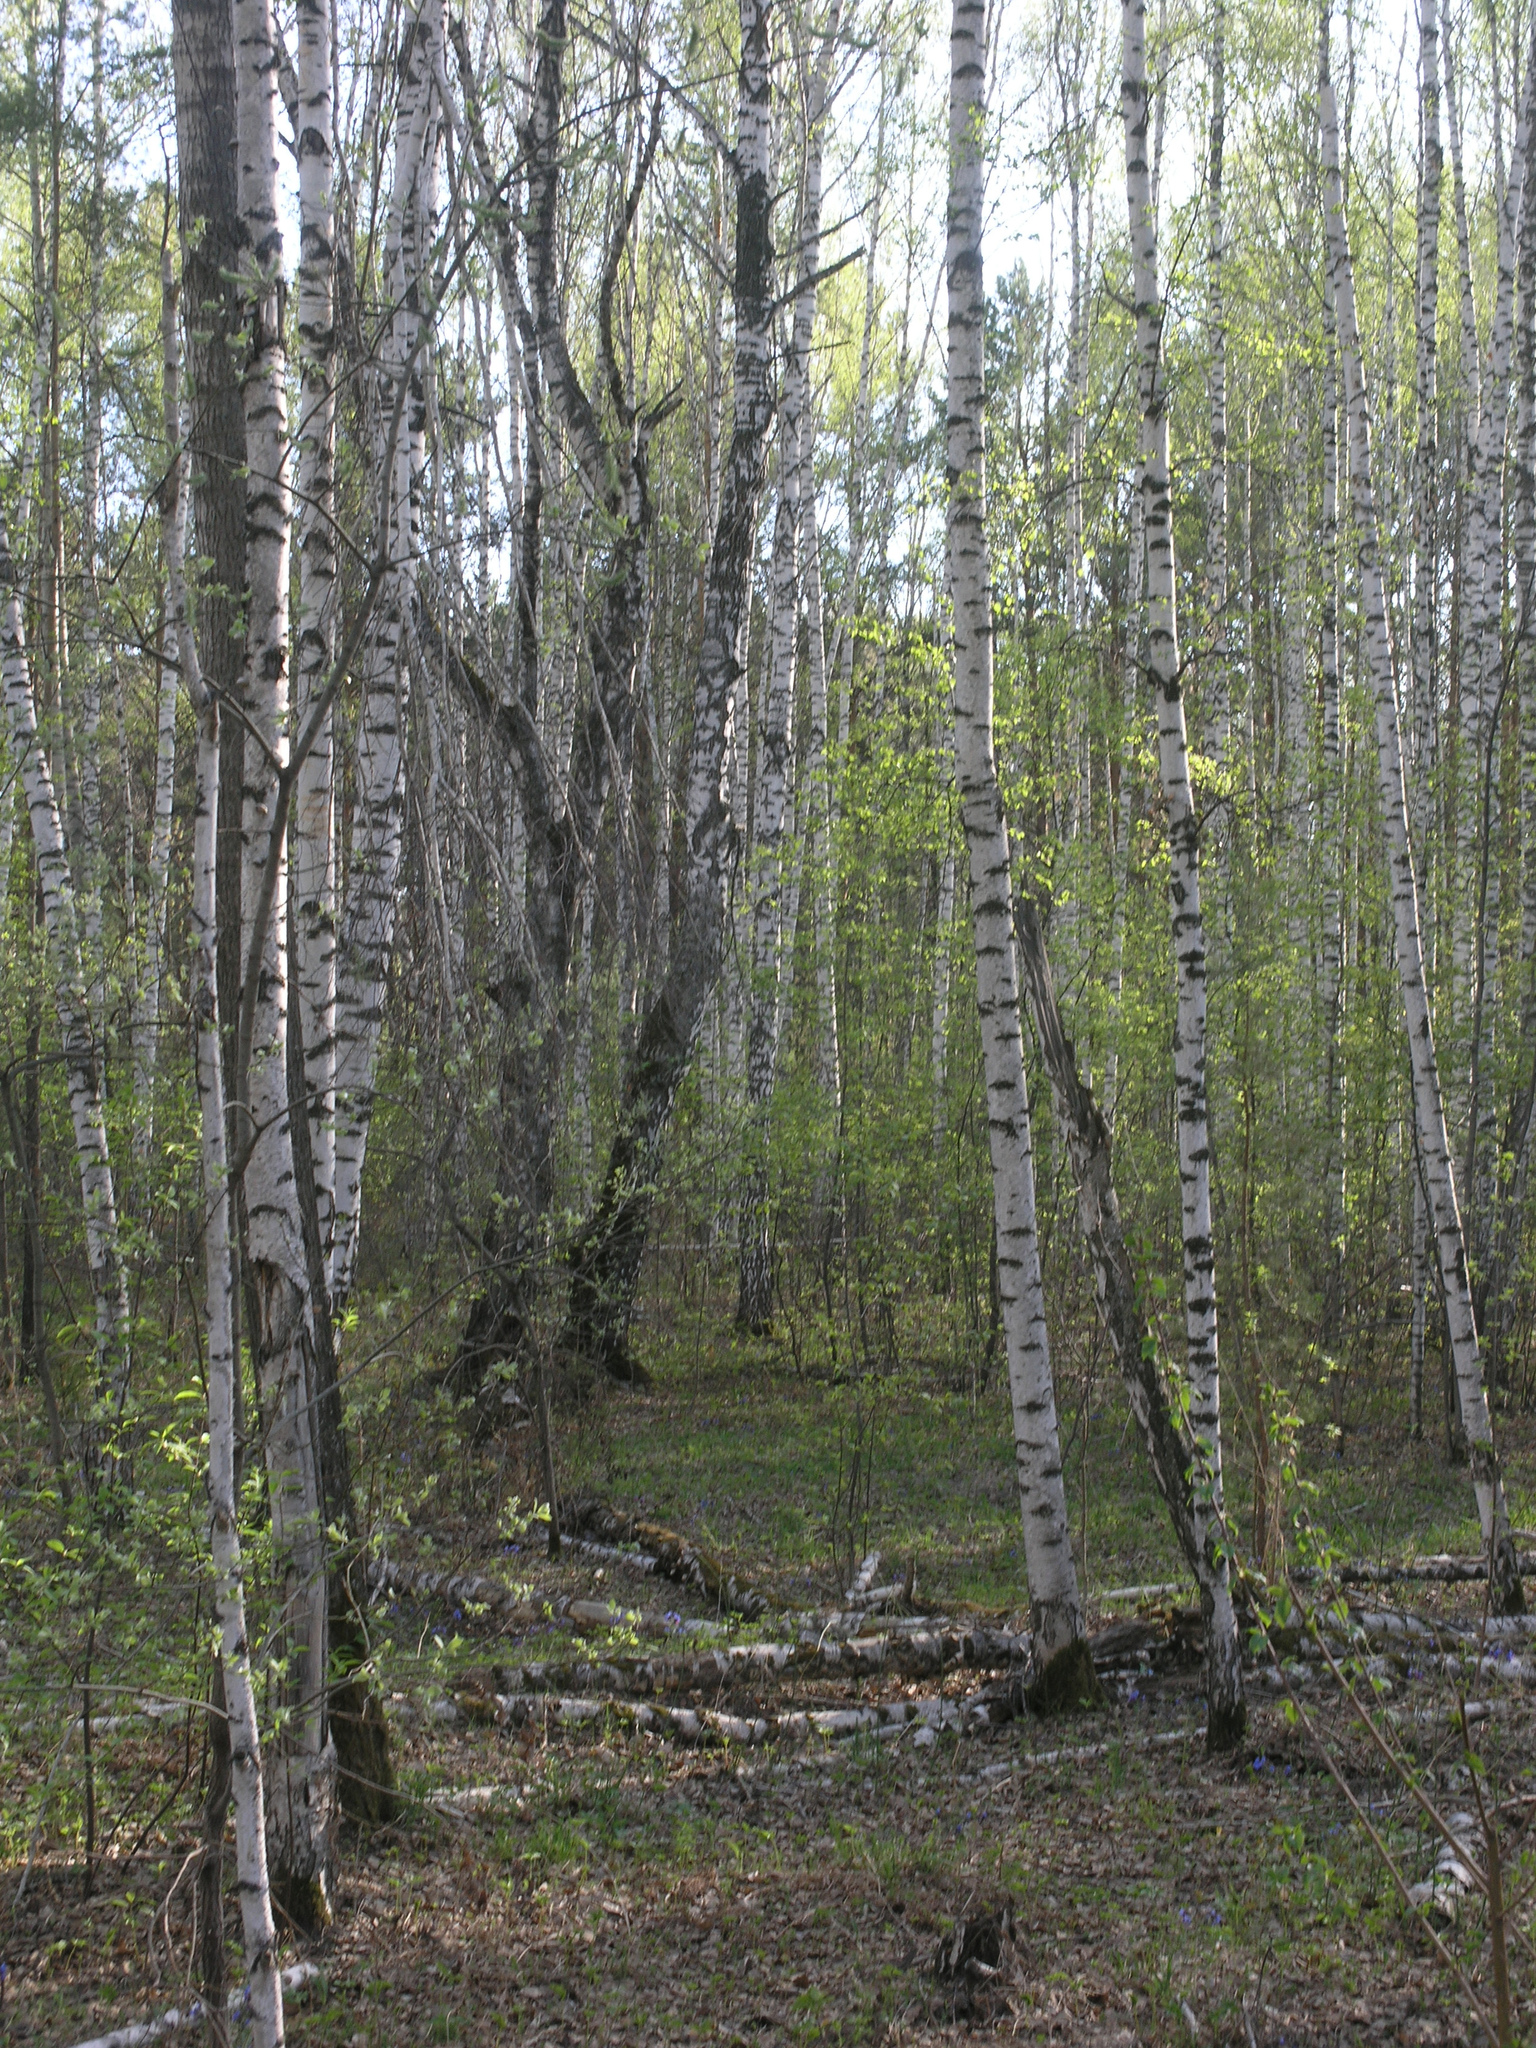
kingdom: Plantae
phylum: Tracheophyta
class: Magnoliopsida
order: Fagales
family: Betulaceae
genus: Betula
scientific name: Betula pendula
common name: Silver birch
